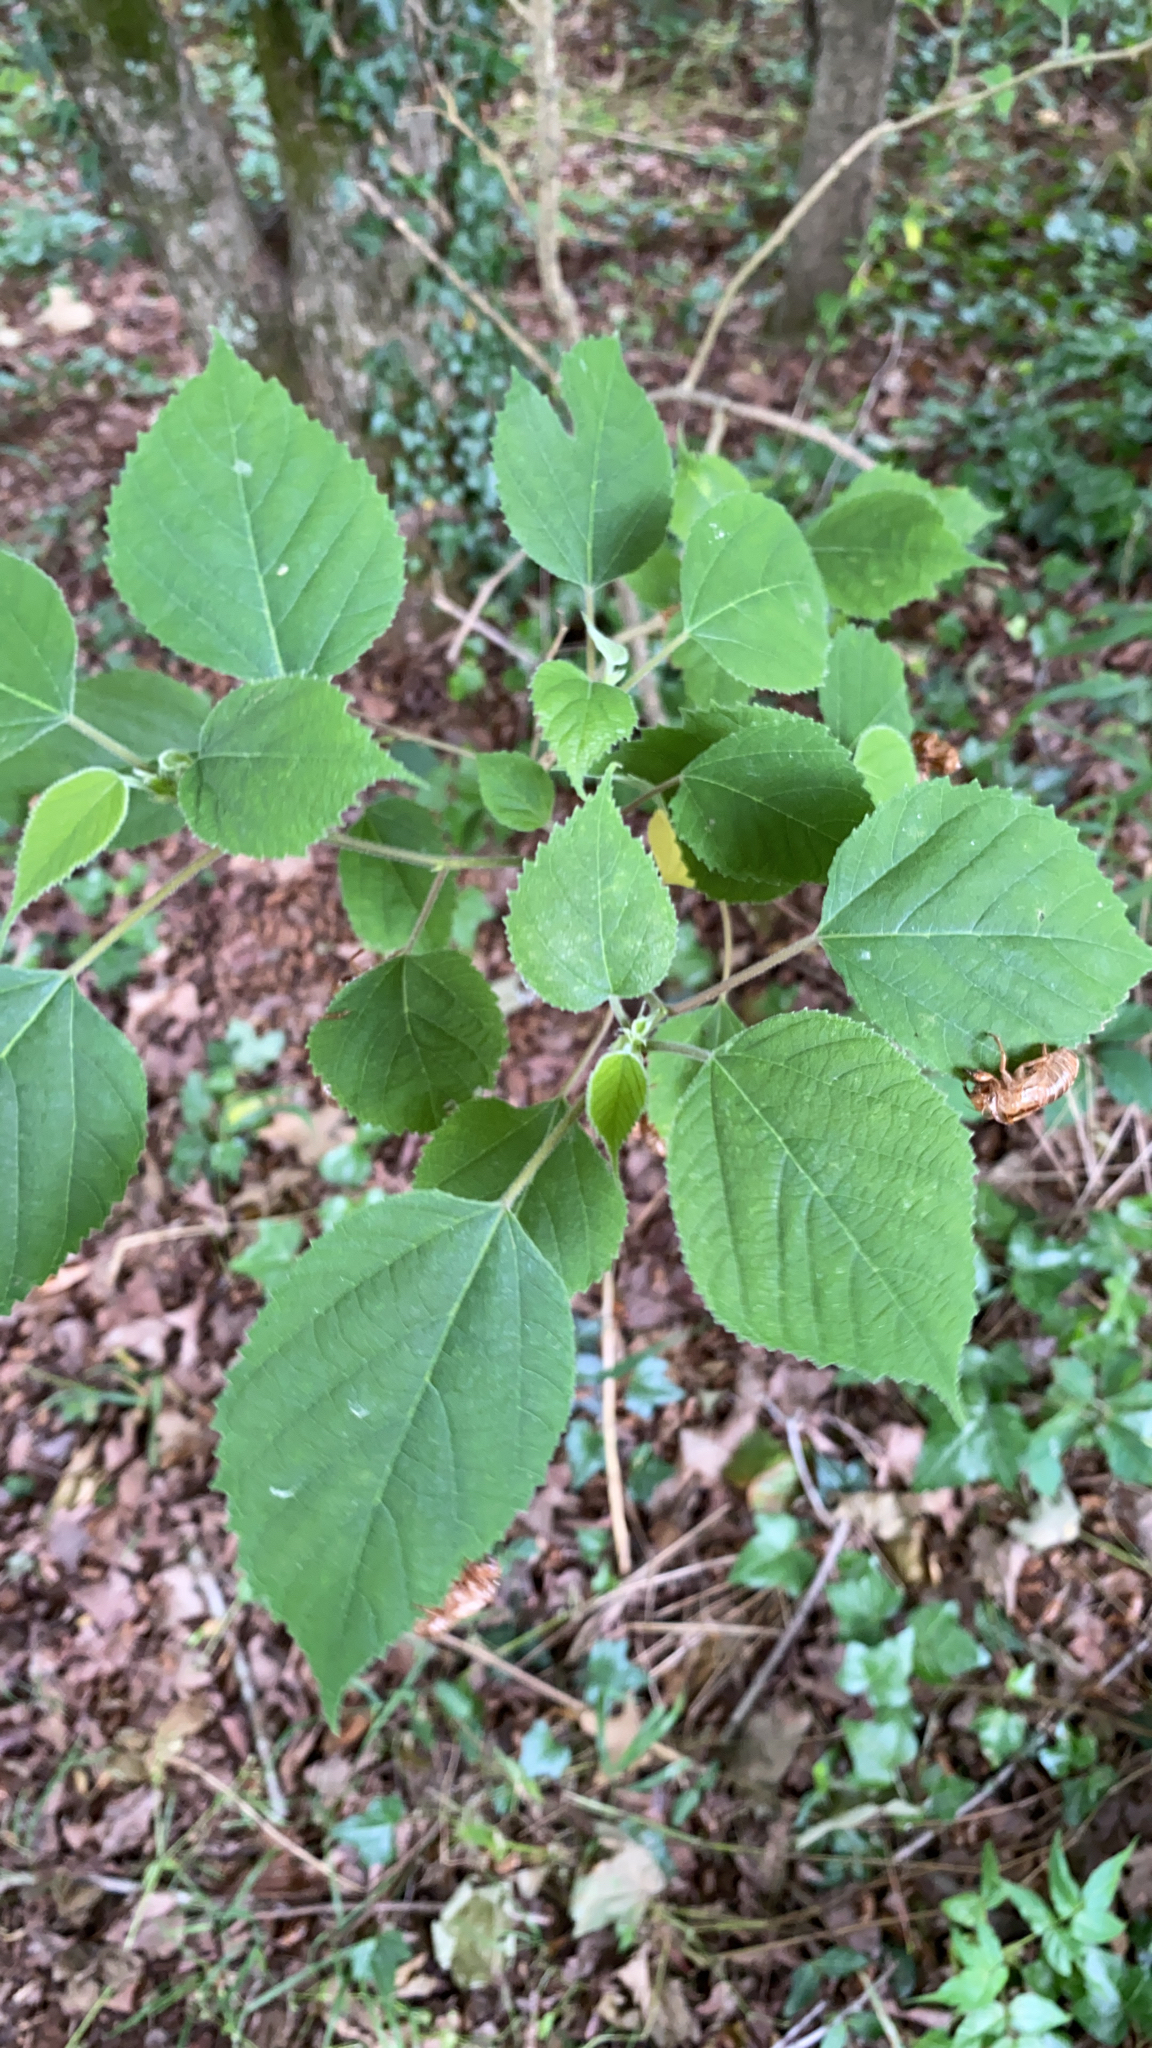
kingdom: Plantae
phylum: Tracheophyta
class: Magnoliopsida
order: Rosales
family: Moraceae
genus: Broussonetia
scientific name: Broussonetia papyrifera
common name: Paper mulberry
